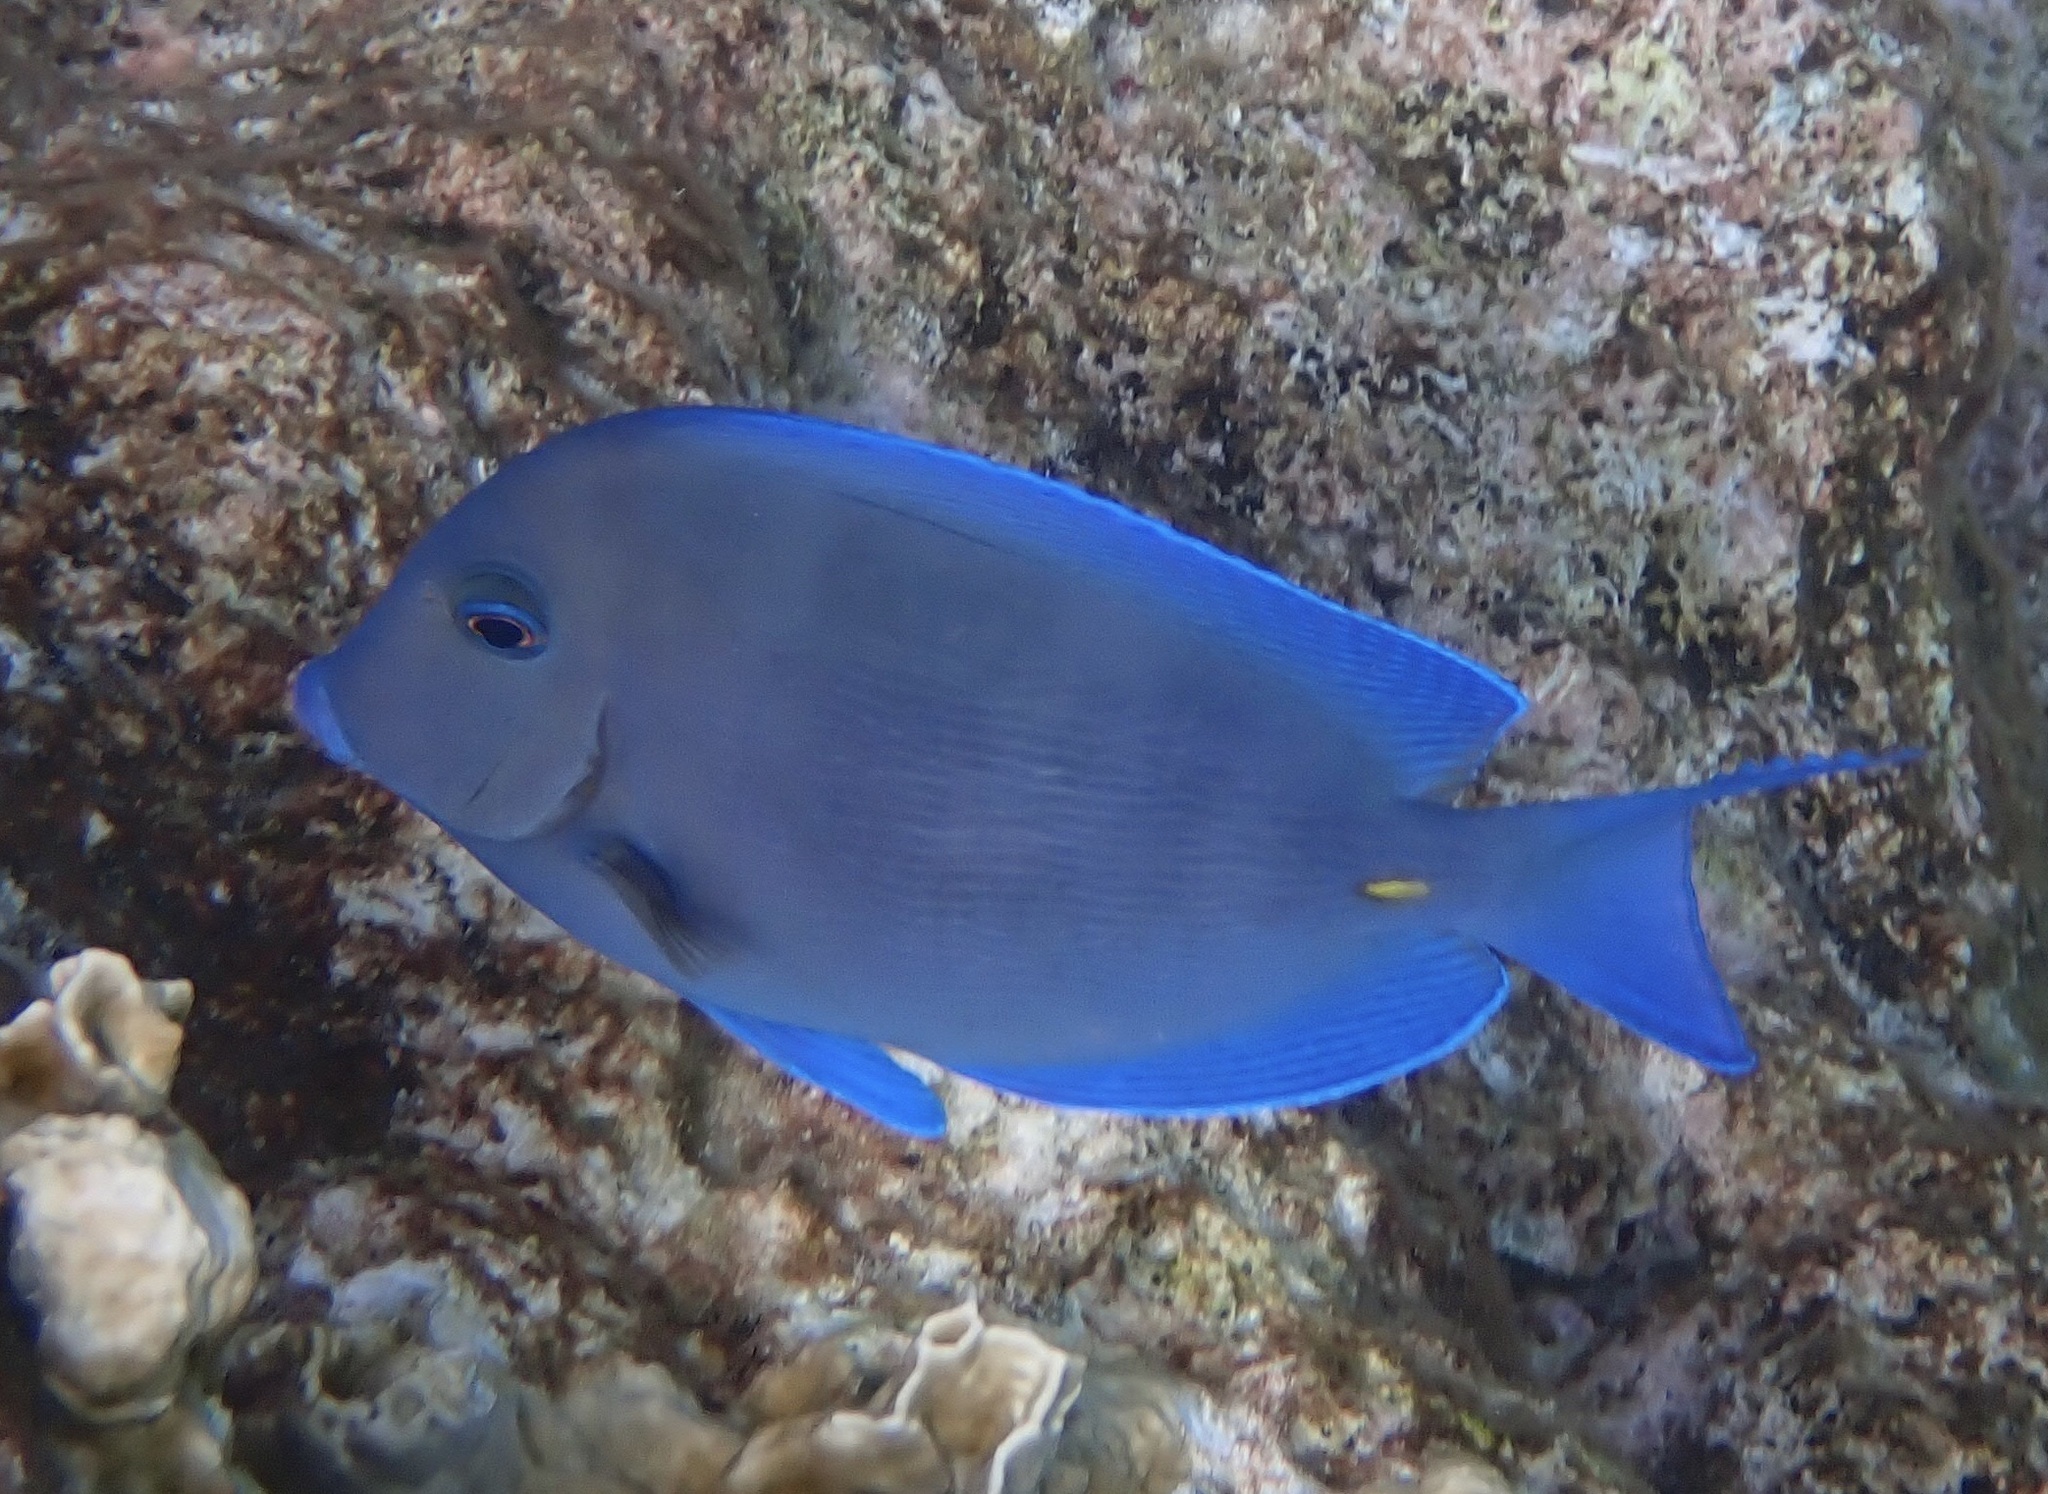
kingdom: Animalia
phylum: Chordata
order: Perciformes
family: Acanthuridae
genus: Acanthurus
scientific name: Acanthurus coeruleus
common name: Blue tang
